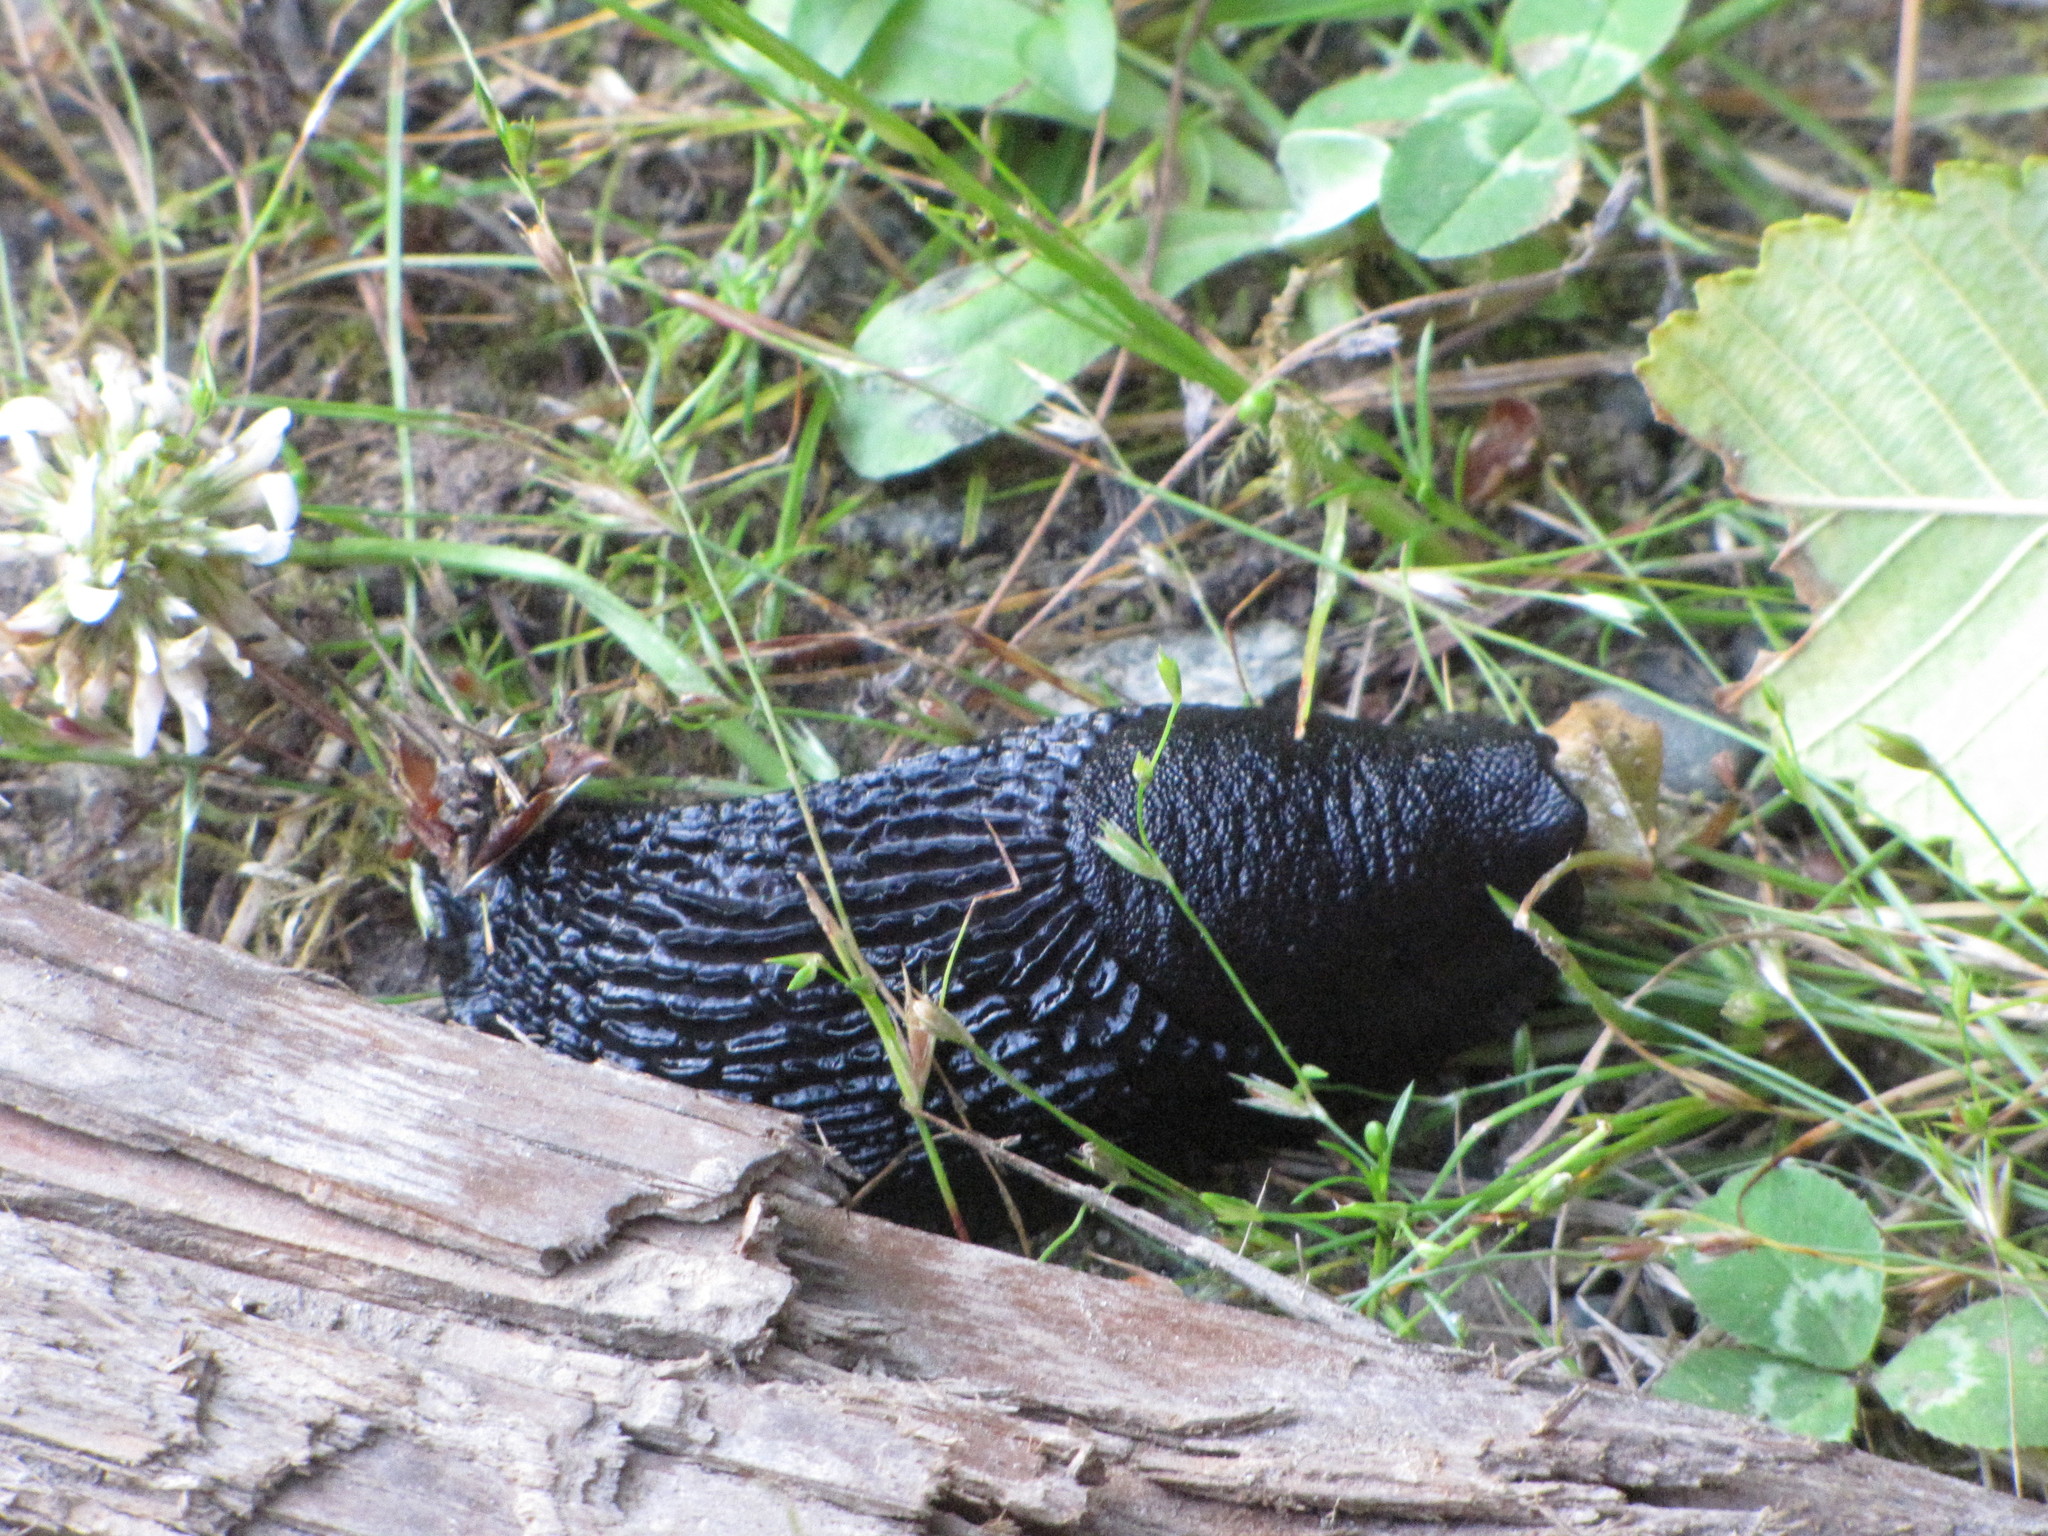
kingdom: Animalia
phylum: Mollusca
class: Gastropoda
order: Stylommatophora
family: Arionidae
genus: Arion
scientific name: Arion
